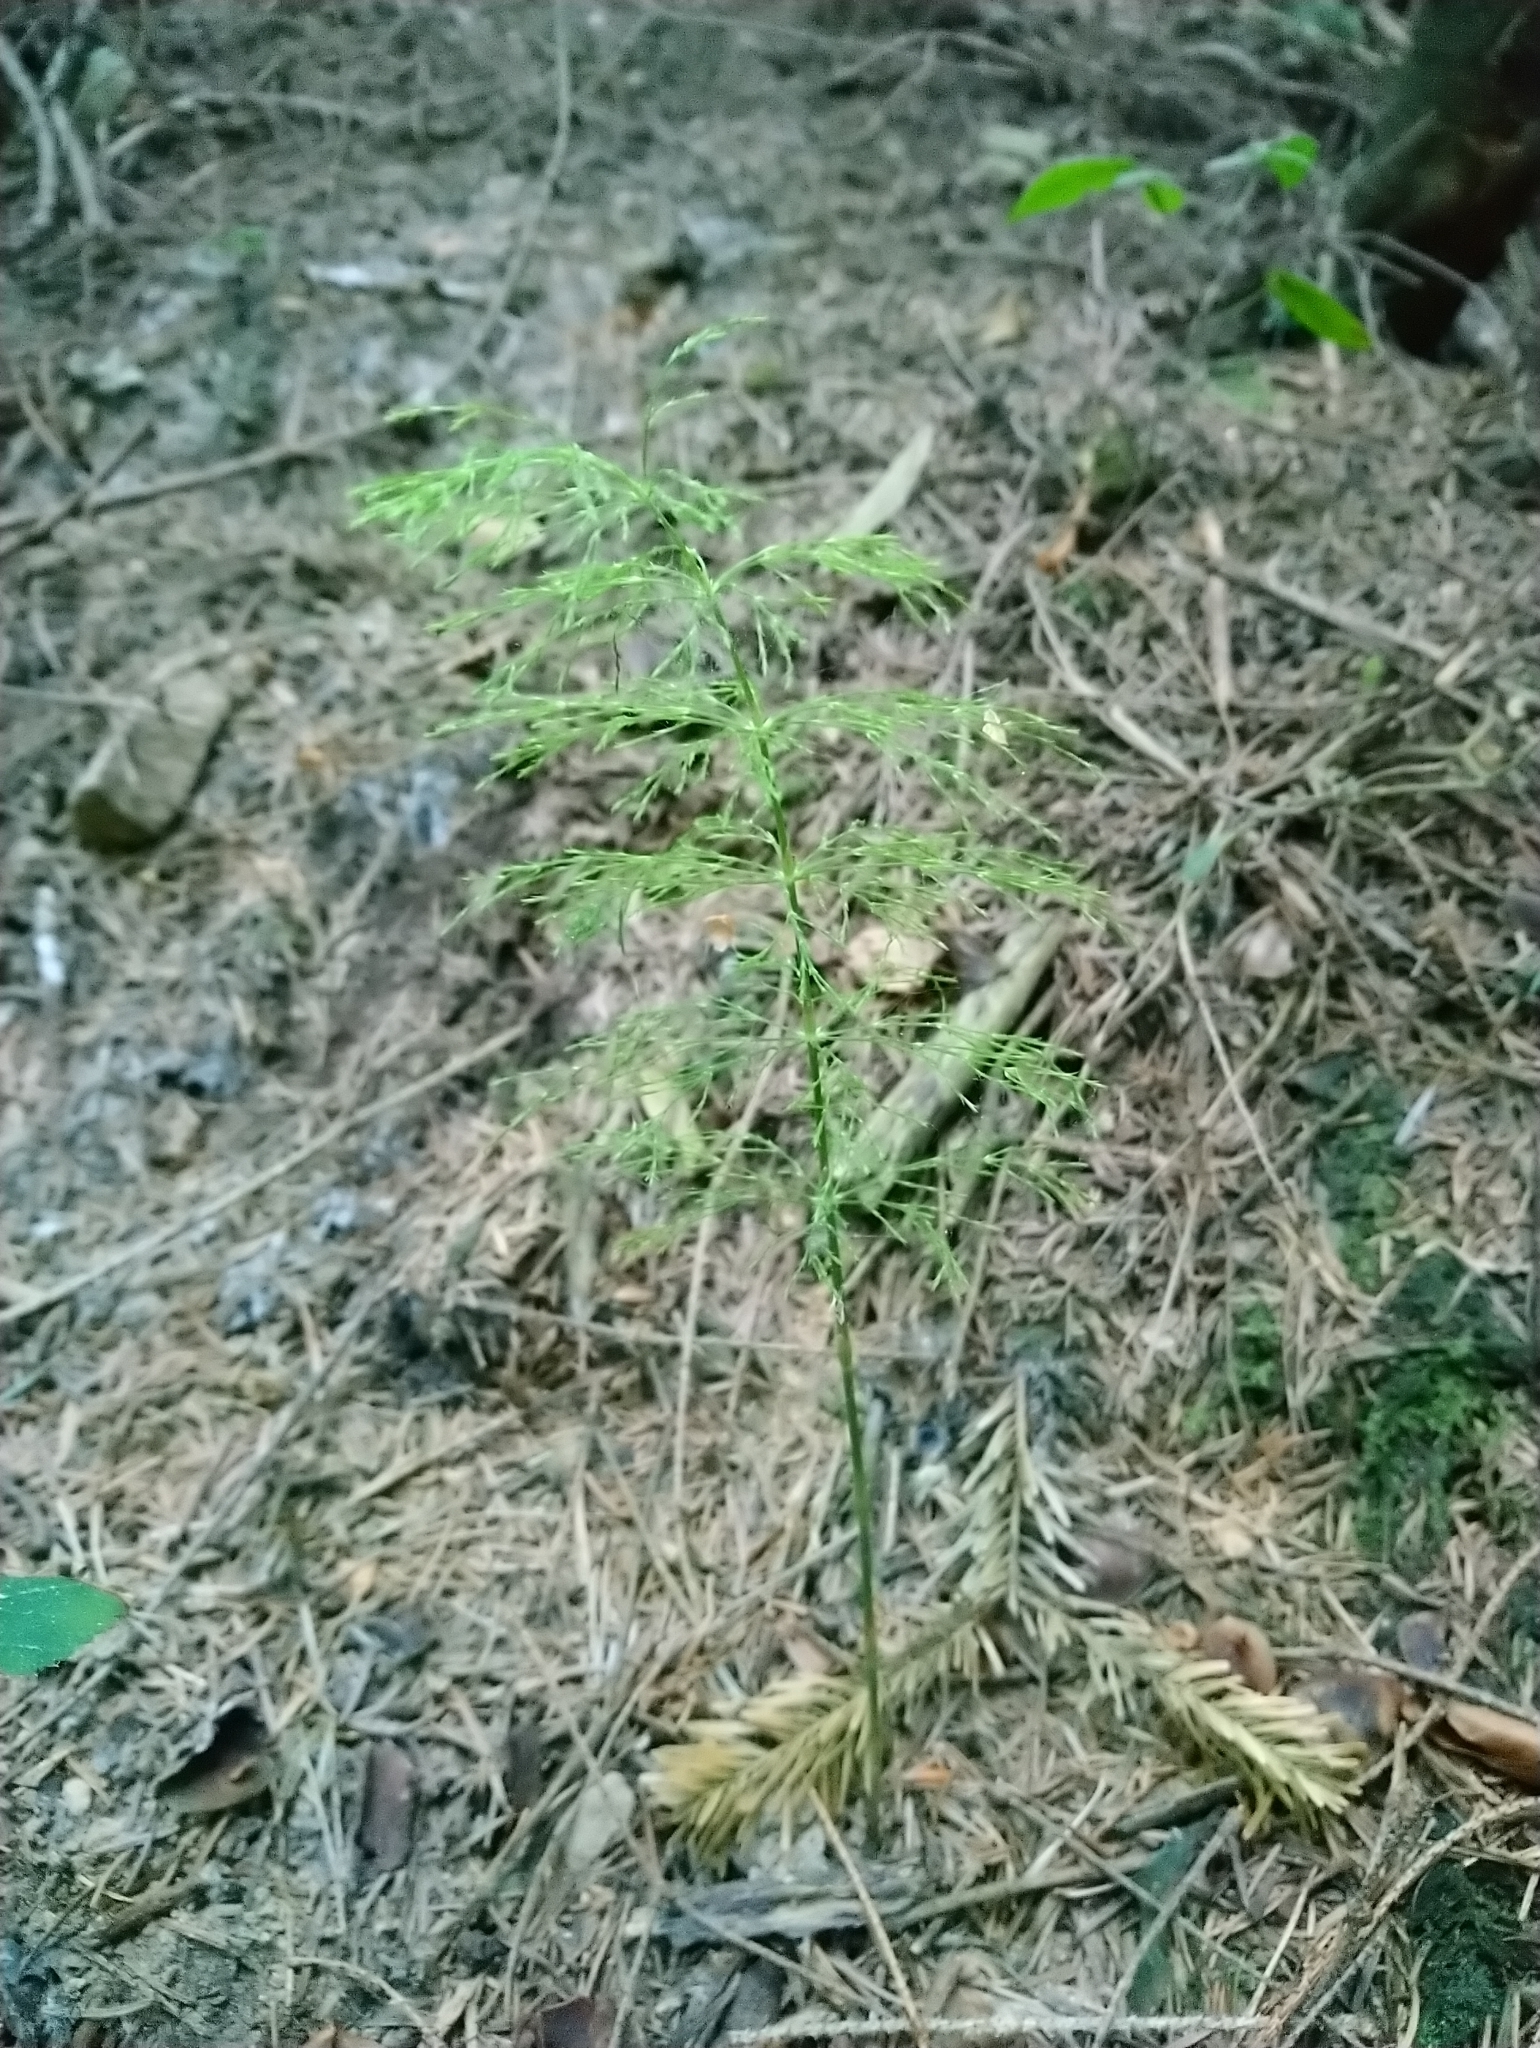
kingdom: Plantae
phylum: Tracheophyta
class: Polypodiopsida
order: Equisetales
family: Equisetaceae
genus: Equisetum
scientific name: Equisetum sylvaticum
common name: Wood horsetail
